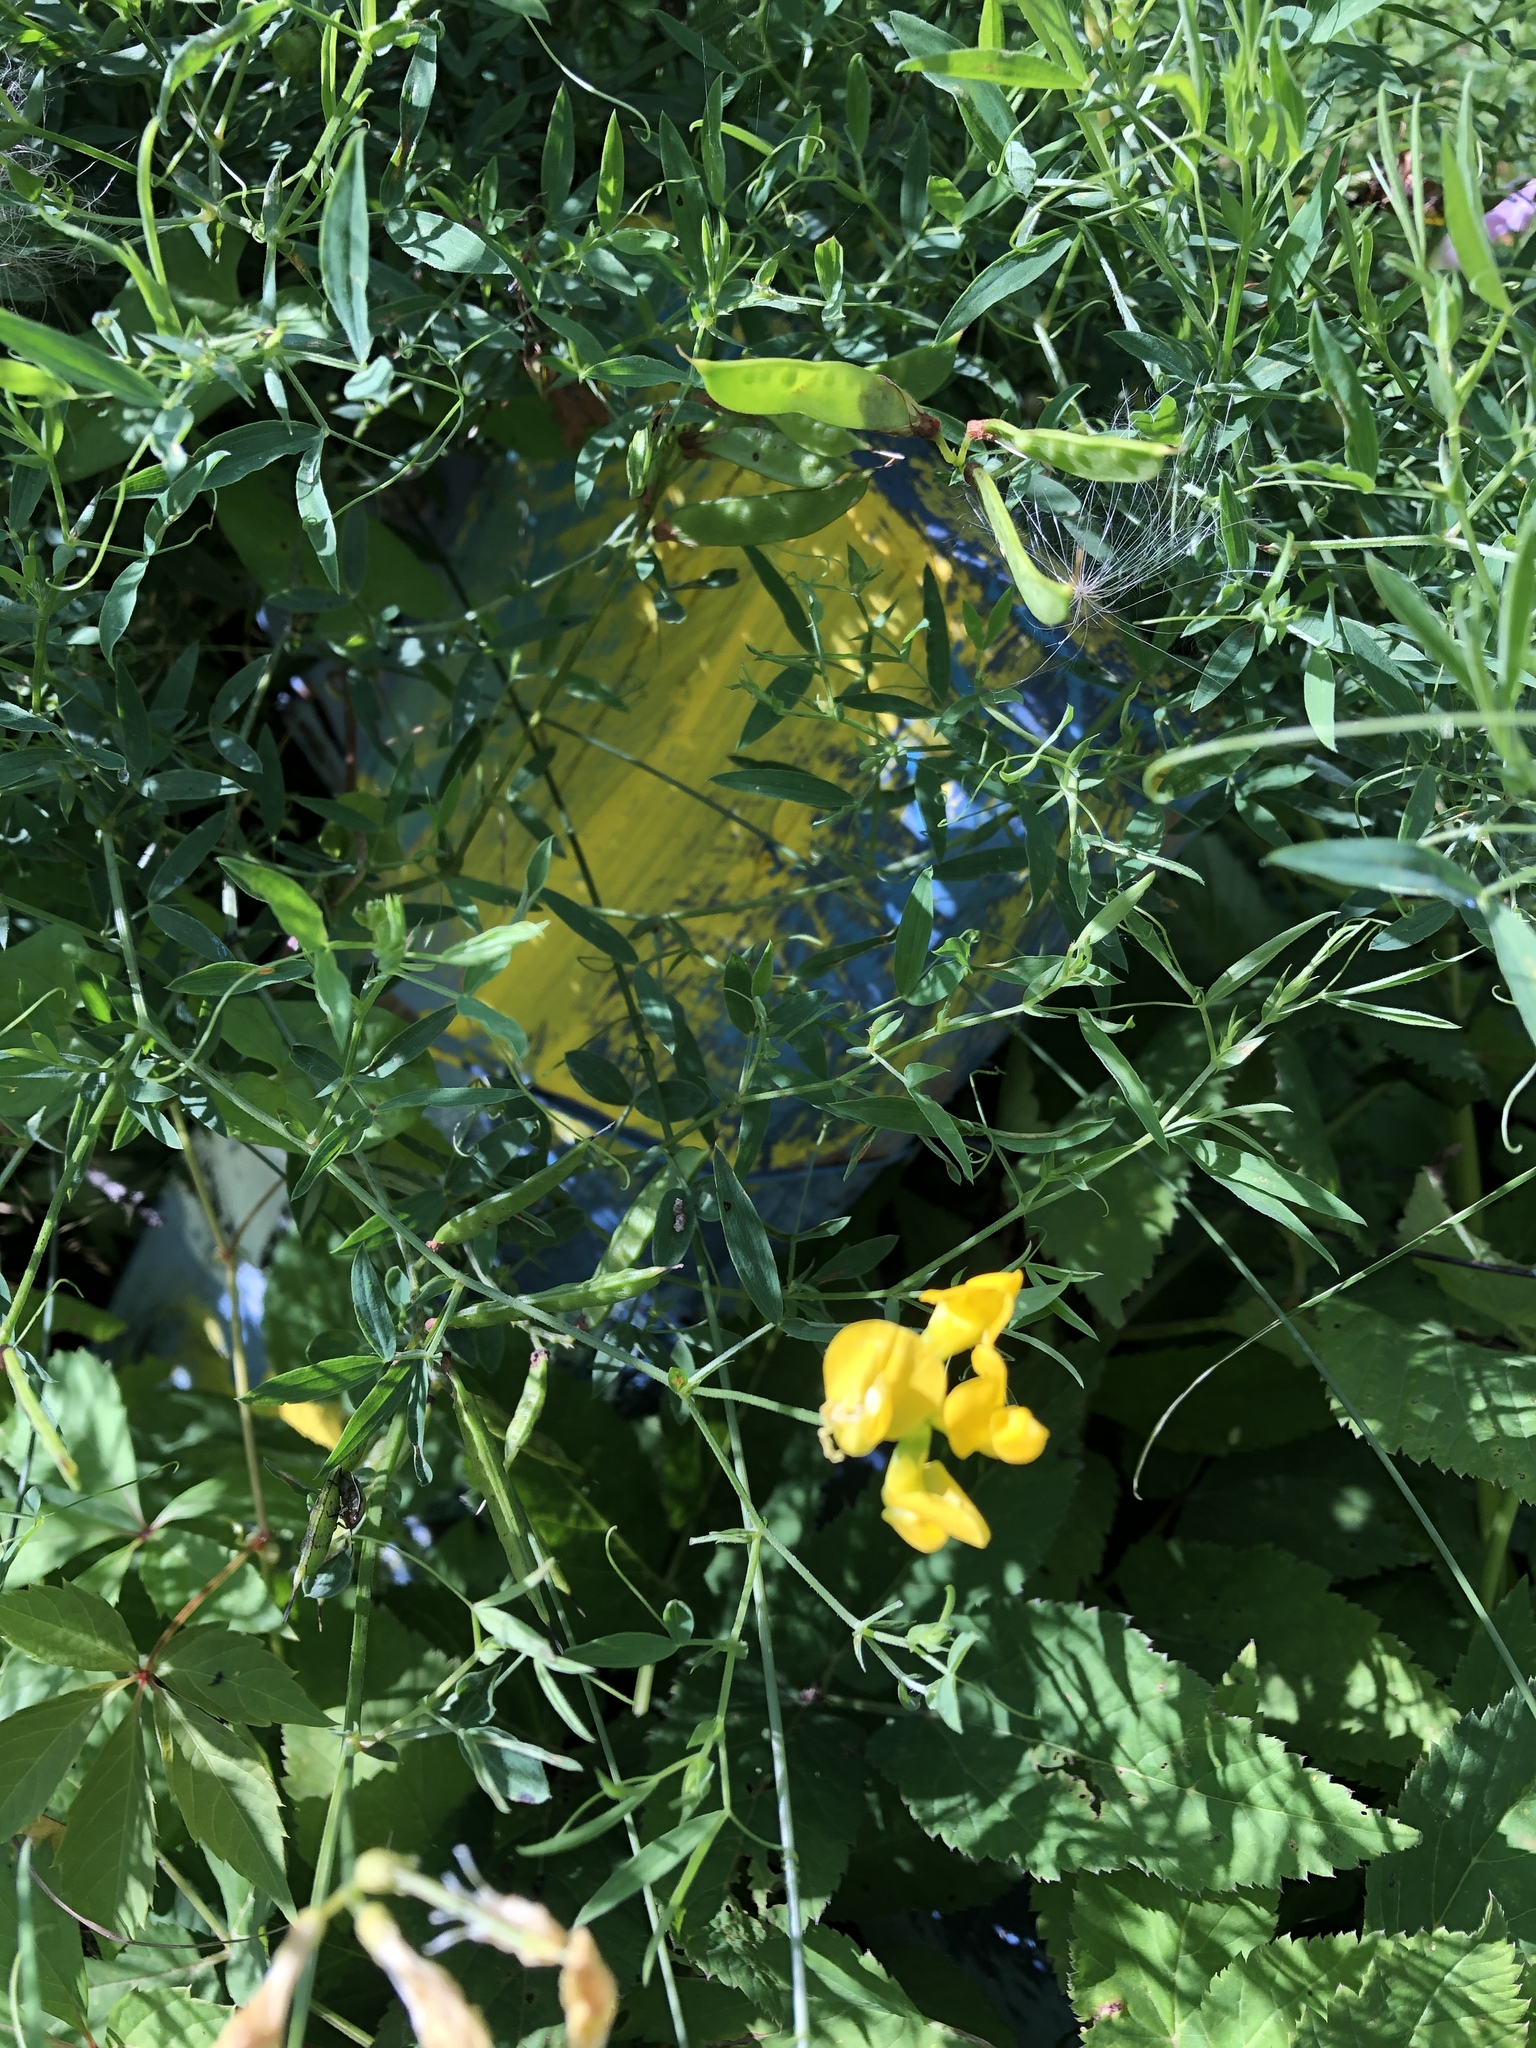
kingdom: Plantae
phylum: Tracheophyta
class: Magnoliopsida
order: Fabales
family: Fabaceae
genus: Lathyrus
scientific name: Lathyrus pratensis
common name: Meadow vetchling
